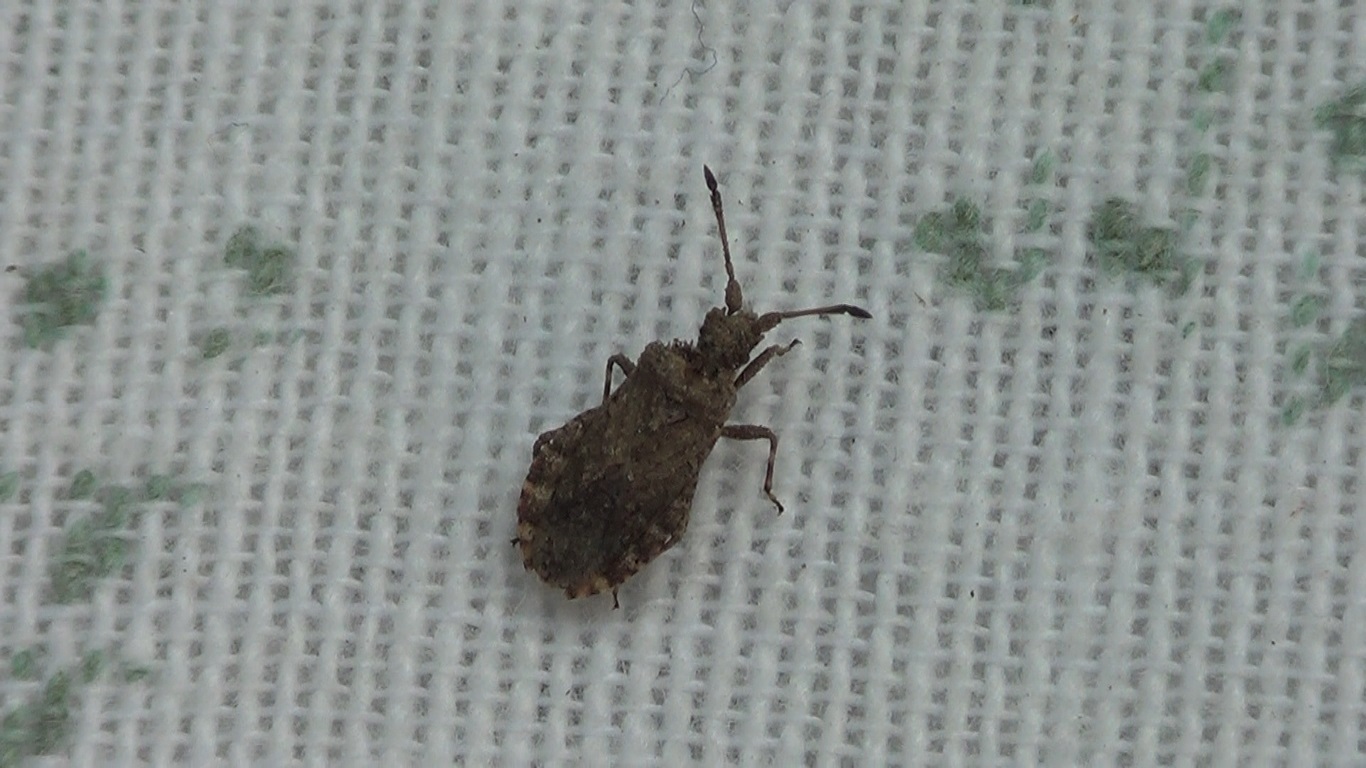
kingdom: Animalia
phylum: Arthropoda
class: Insecta
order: Hemiptera
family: Coreidae
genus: Arenocoris
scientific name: Arenocoris waltlii
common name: Breckland leatherbug
